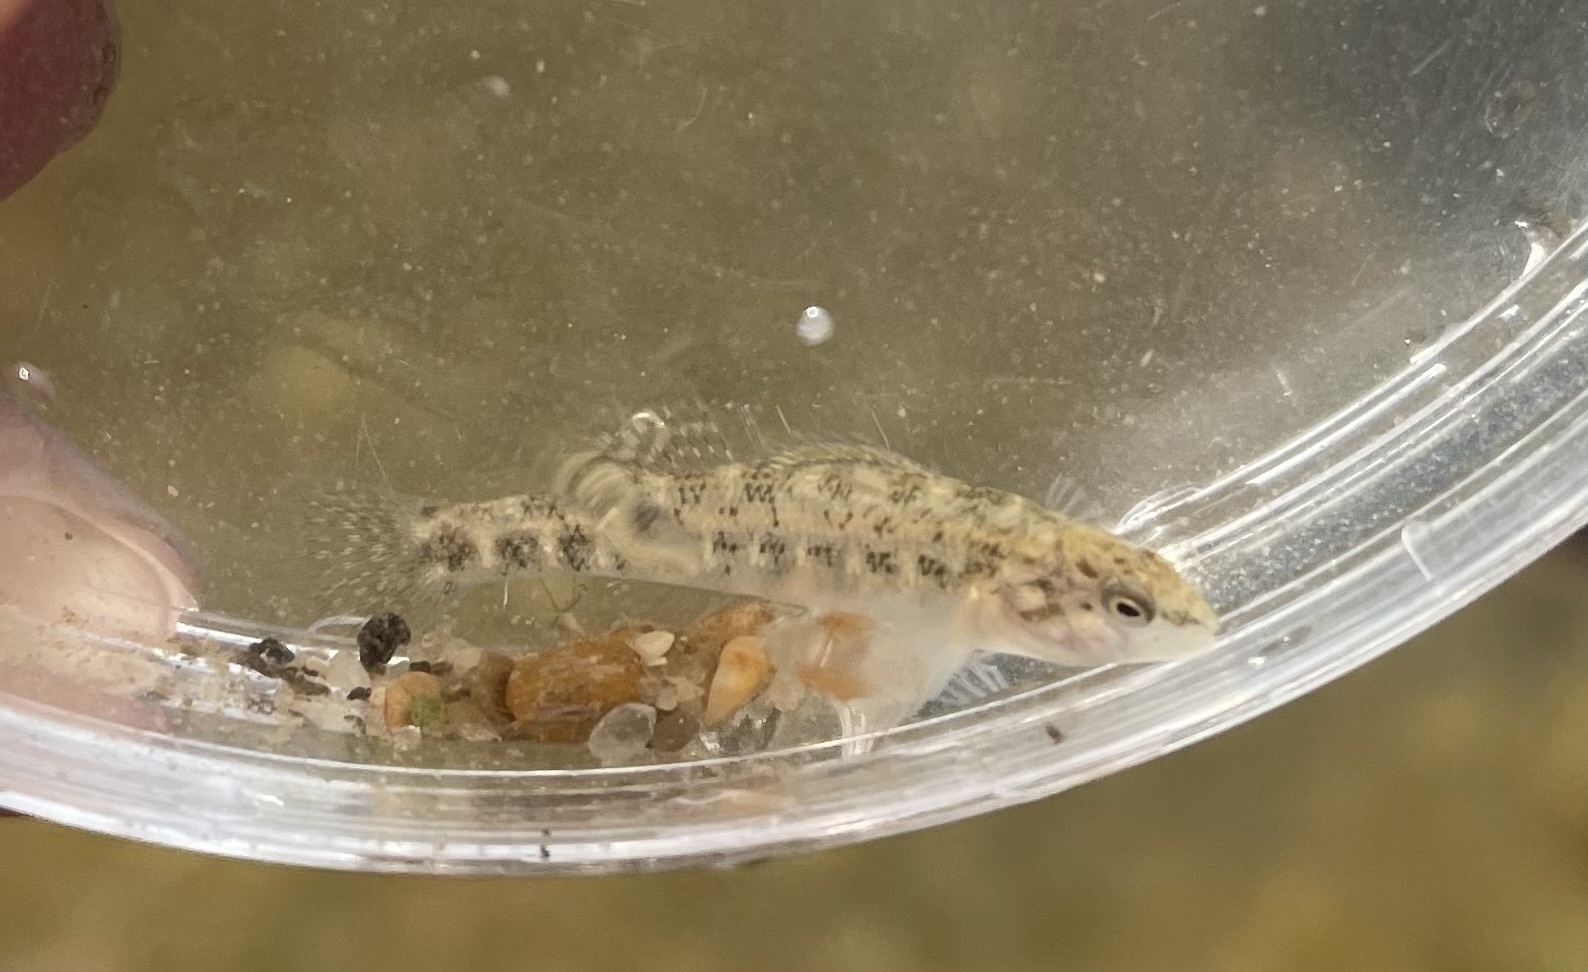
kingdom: Animalia
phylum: Chordata
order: Perciformes
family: Percidae
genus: Etheostoma
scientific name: Etheostoma spectabile
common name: Orangethroat darter
